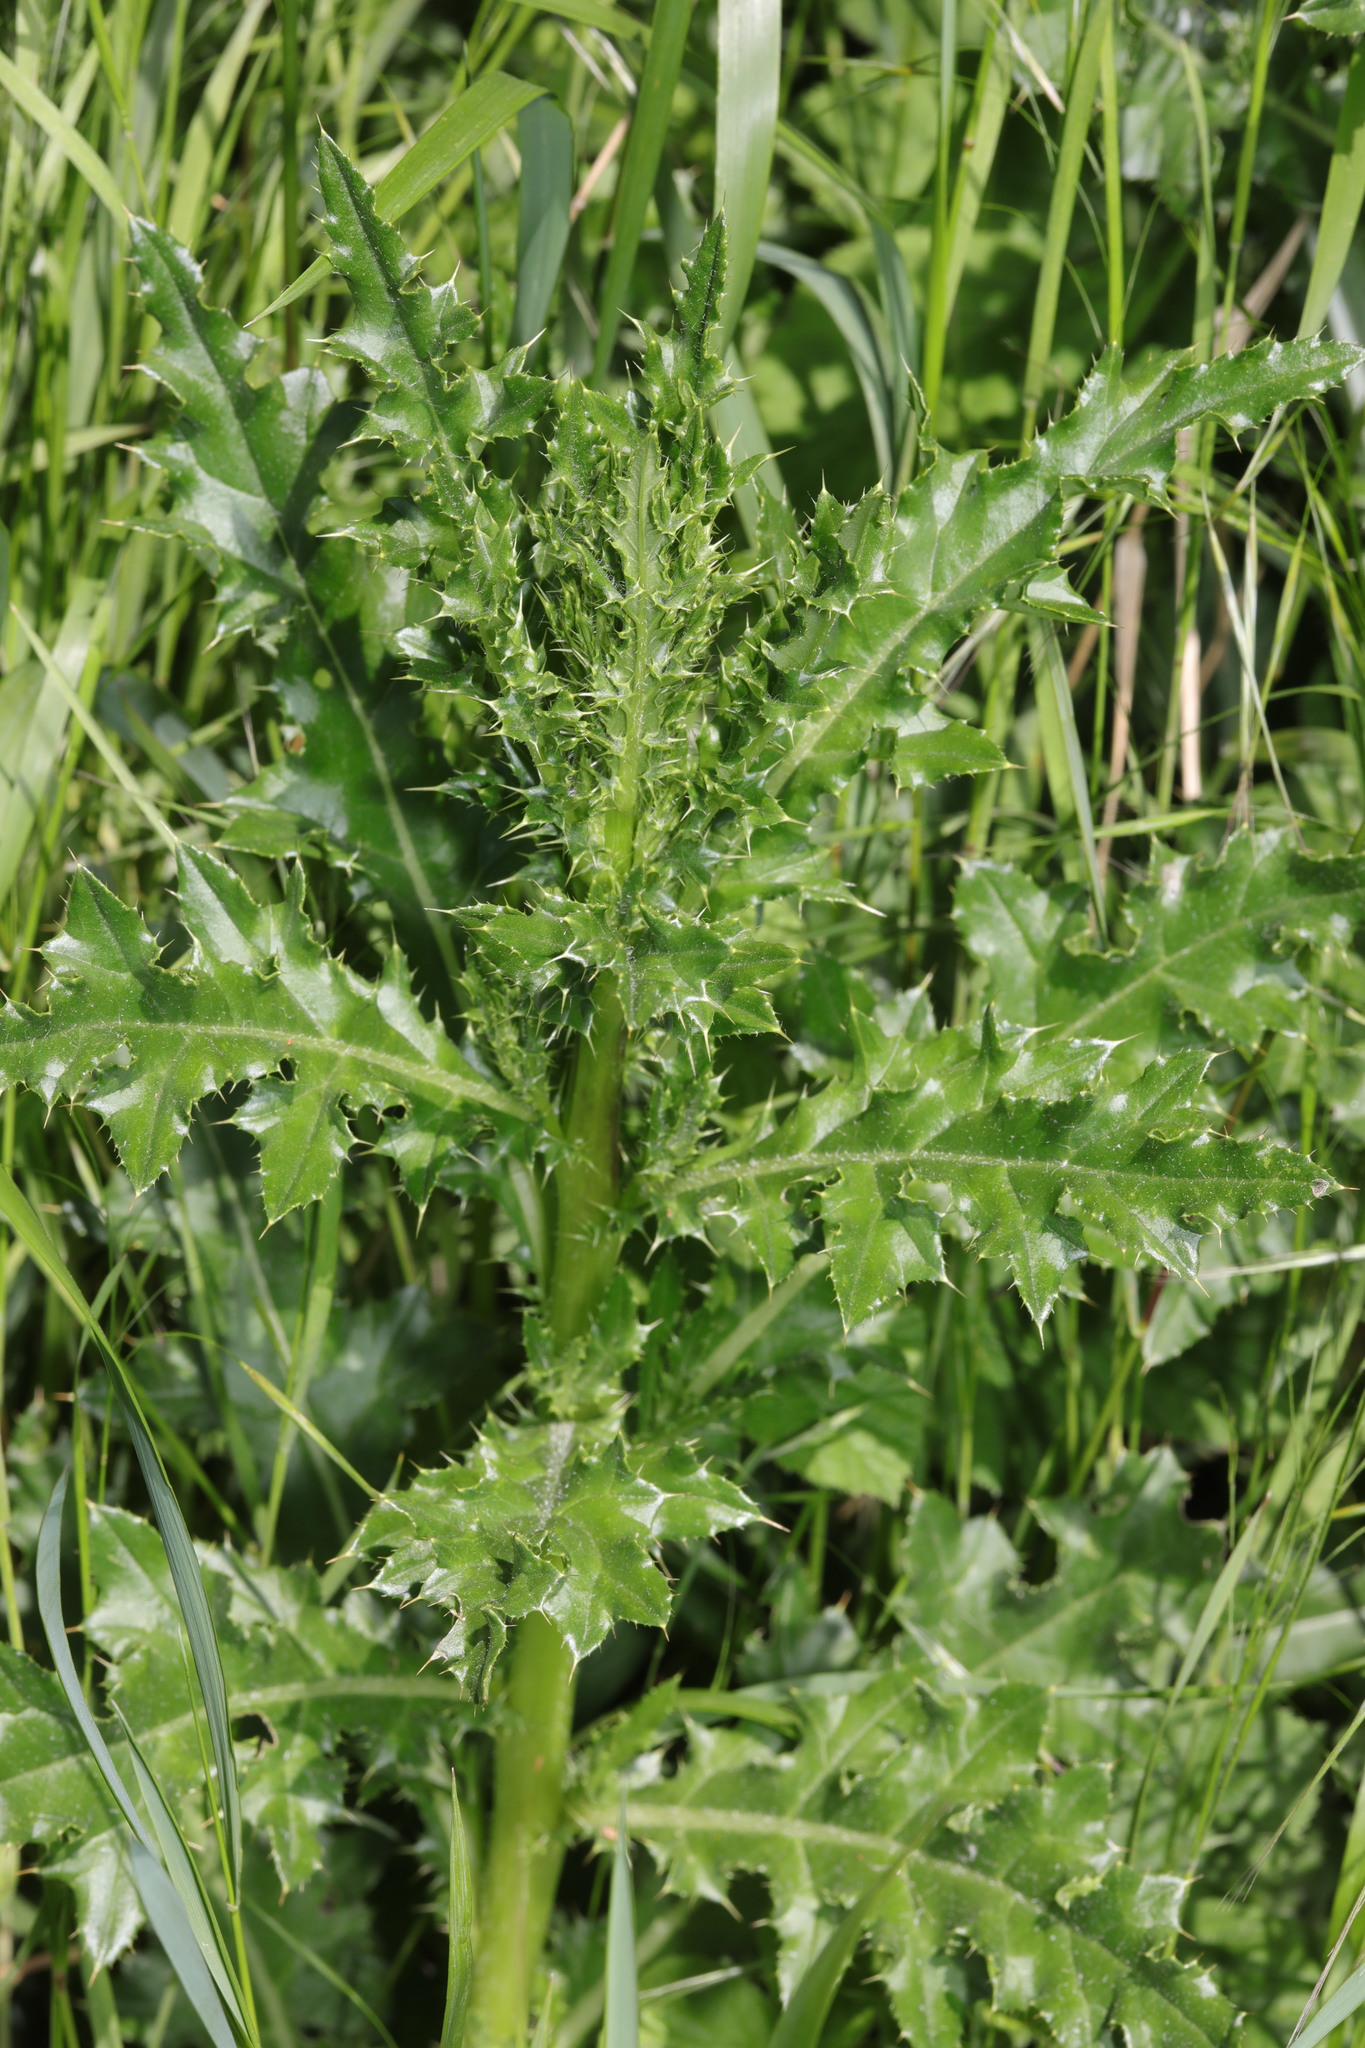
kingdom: Plantae
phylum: Tracheophyta
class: Magnoliopsida
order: Asterales
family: Asteraceae
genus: Cirsium
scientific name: Cirsium arvense
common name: Creeping thistle
